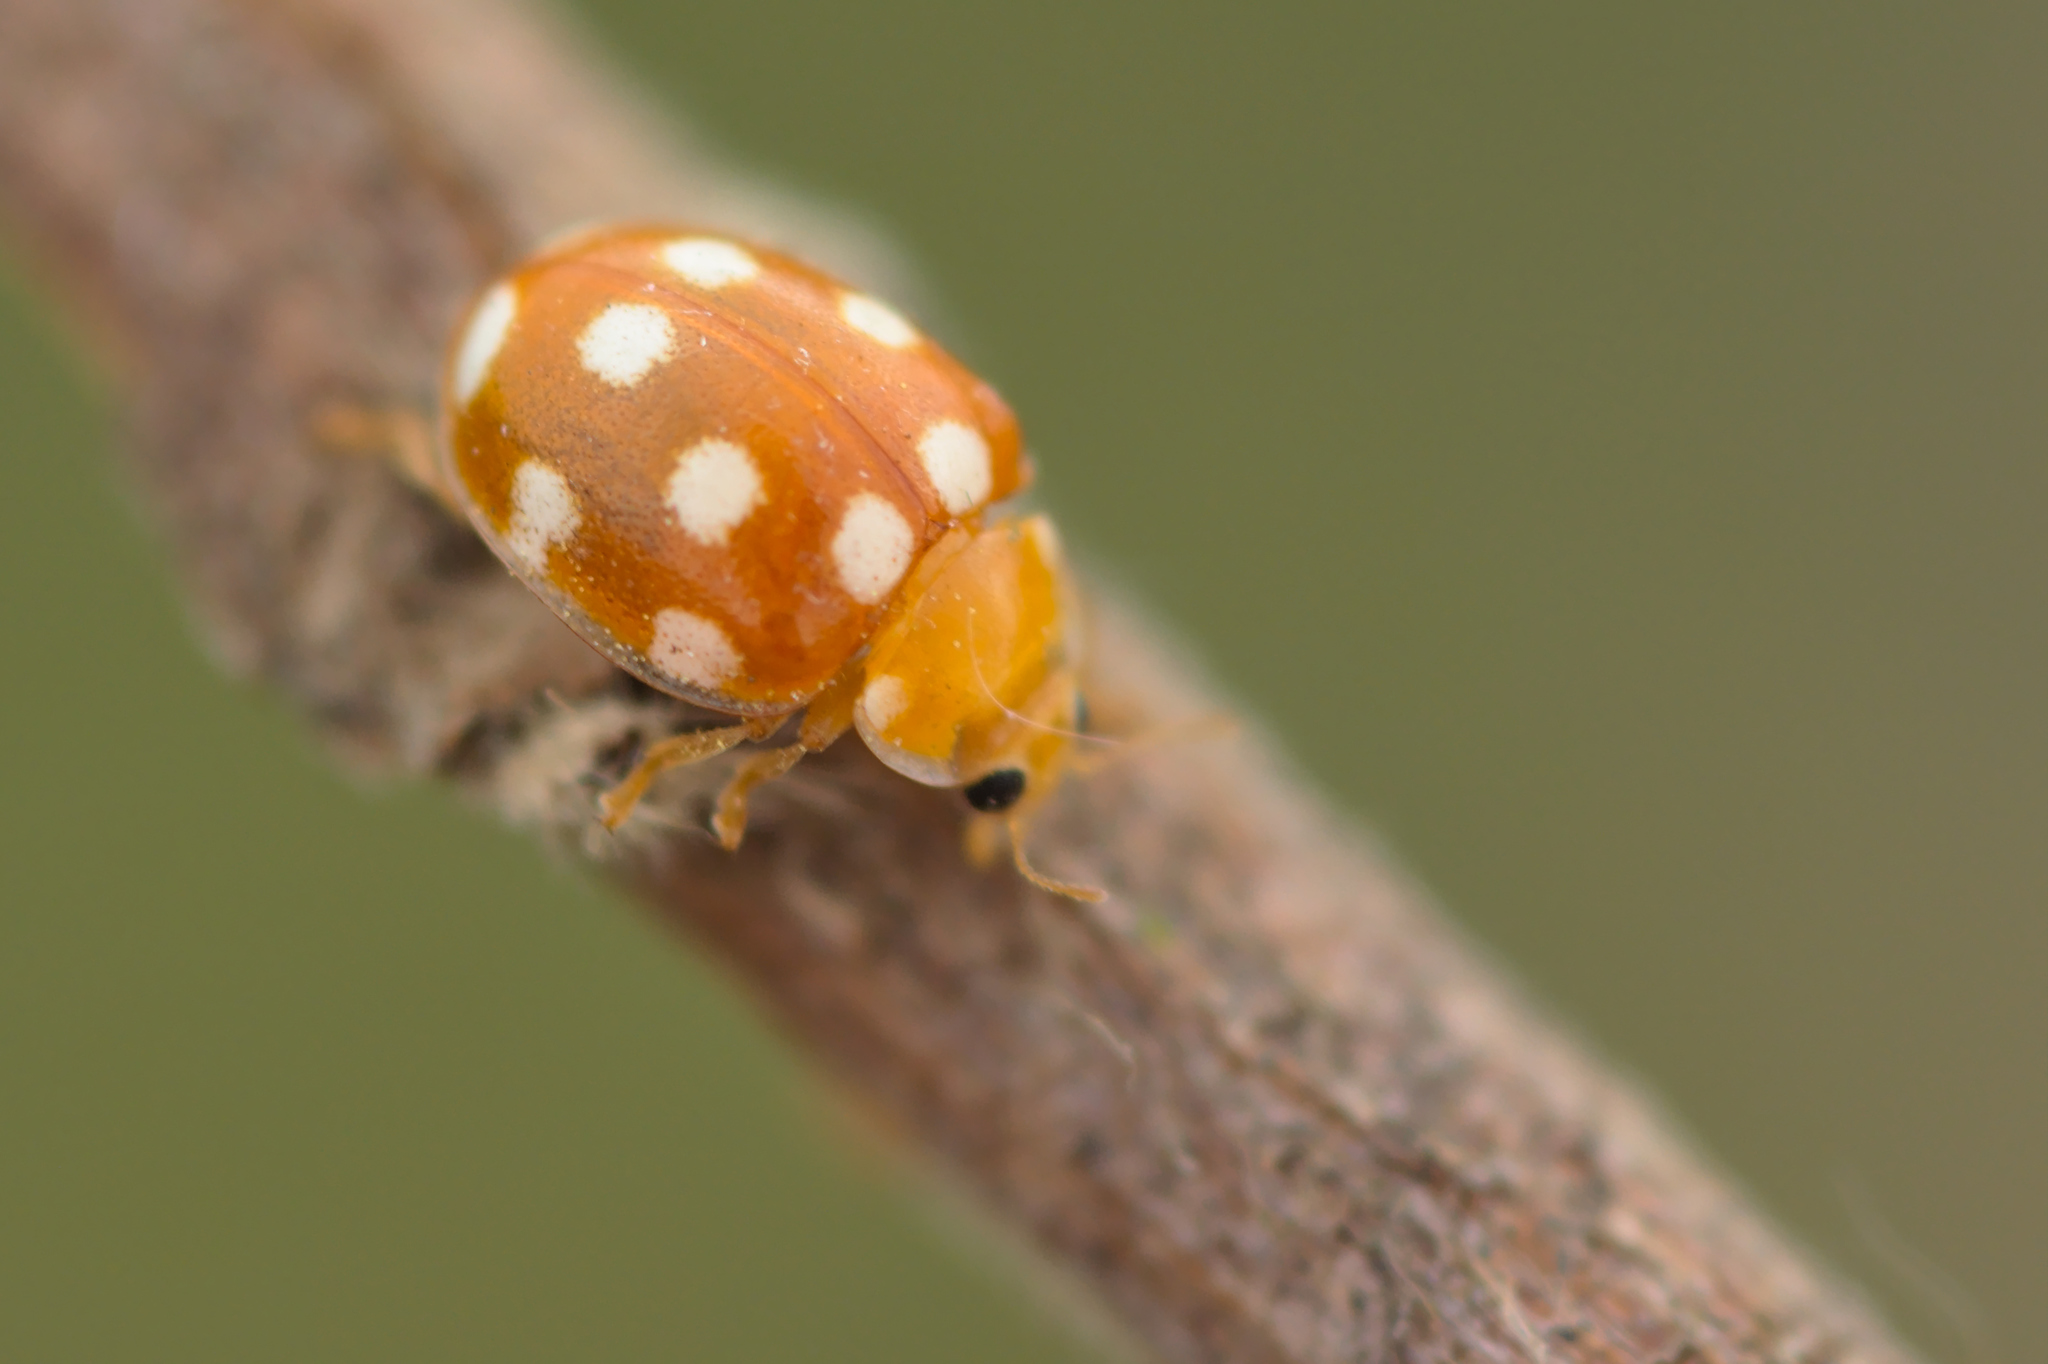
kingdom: Animalia
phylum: Arthropoda
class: Insecta
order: Coleoptera
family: Coccinellidae
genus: Vibidia
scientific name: Vibidia duodecimguttata
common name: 12-spot ladybird
